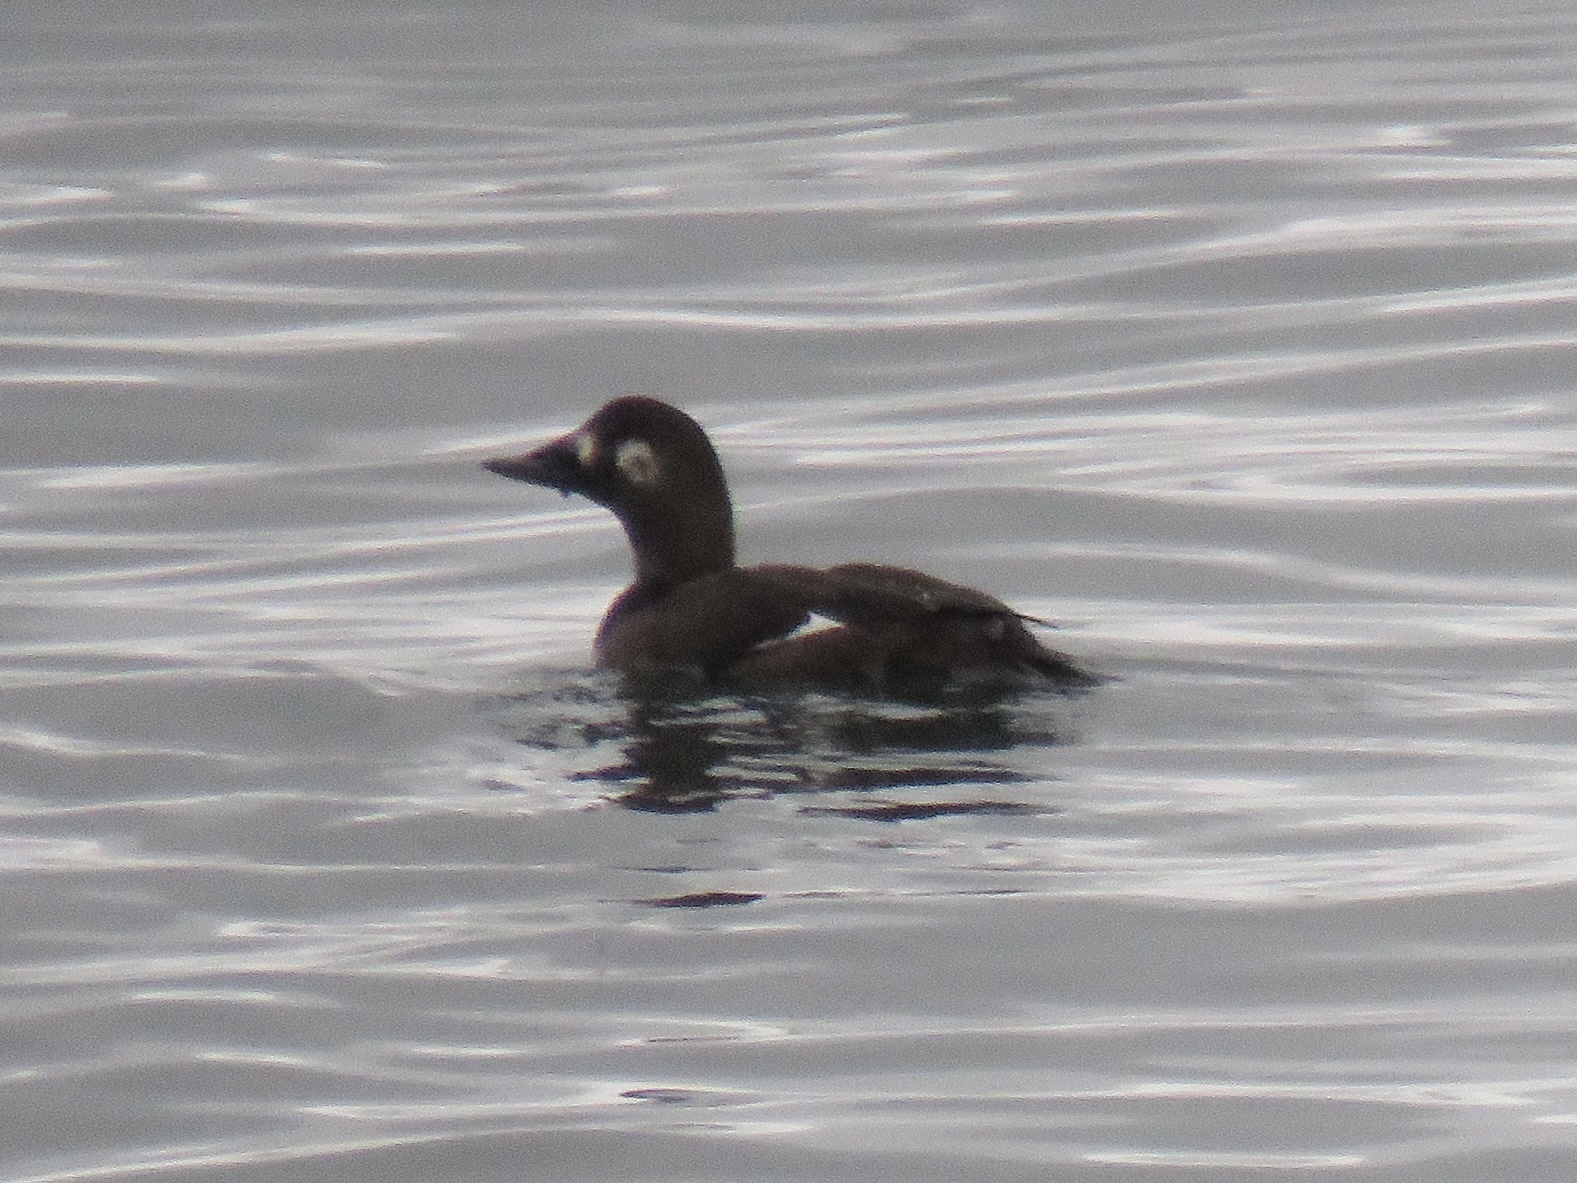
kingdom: Animalia
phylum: Chordata
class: Aves
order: Anseriformes
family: Anatidae
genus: Melanitta
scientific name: Melanitta deglandi
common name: White-winged scoter
